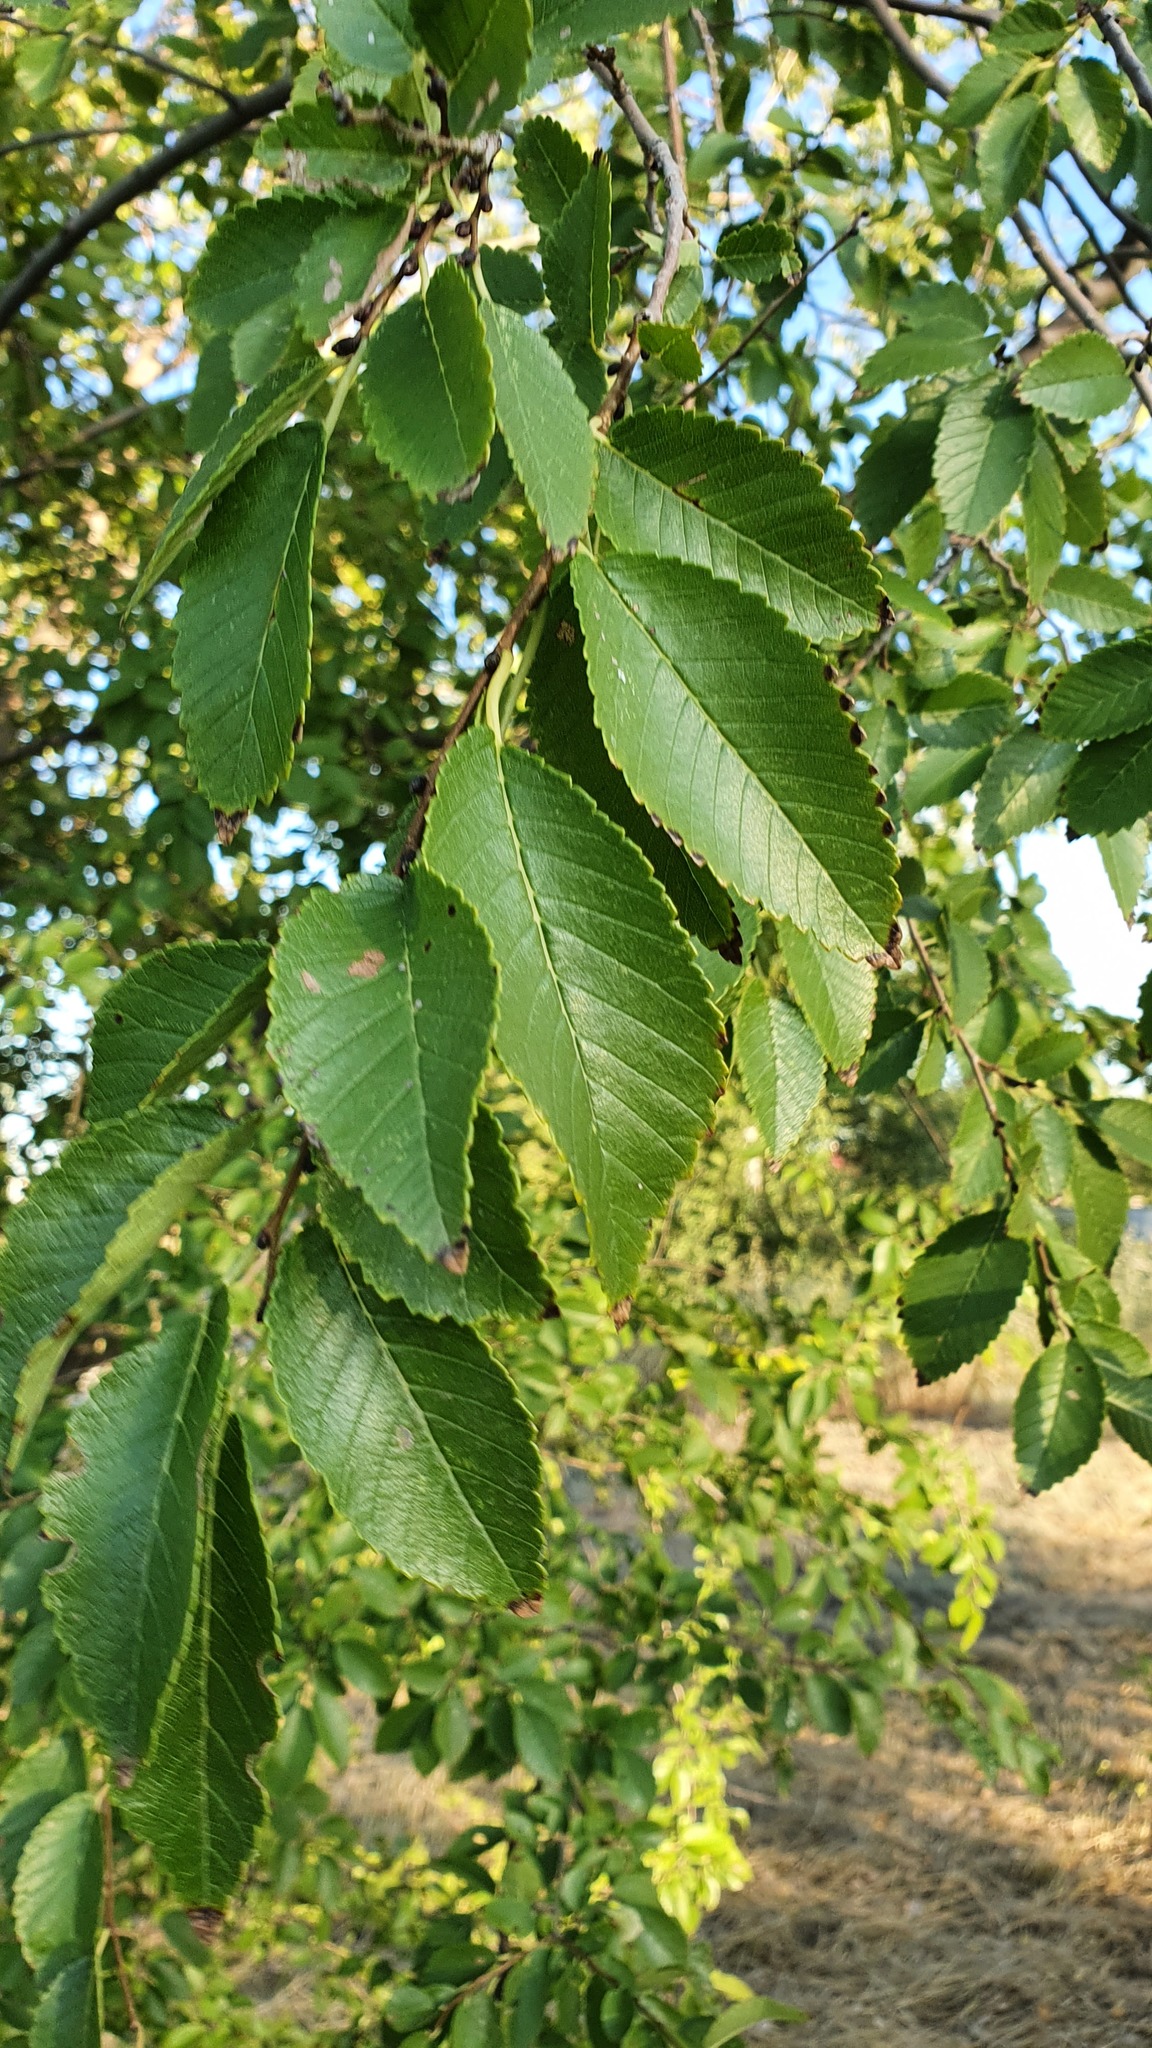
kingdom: Plantae
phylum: Tracheophyta
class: Magnoliopsida
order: Rosales
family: Ulmaceae
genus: Ulmus
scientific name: Ulmus pumila
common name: Siberian elm
